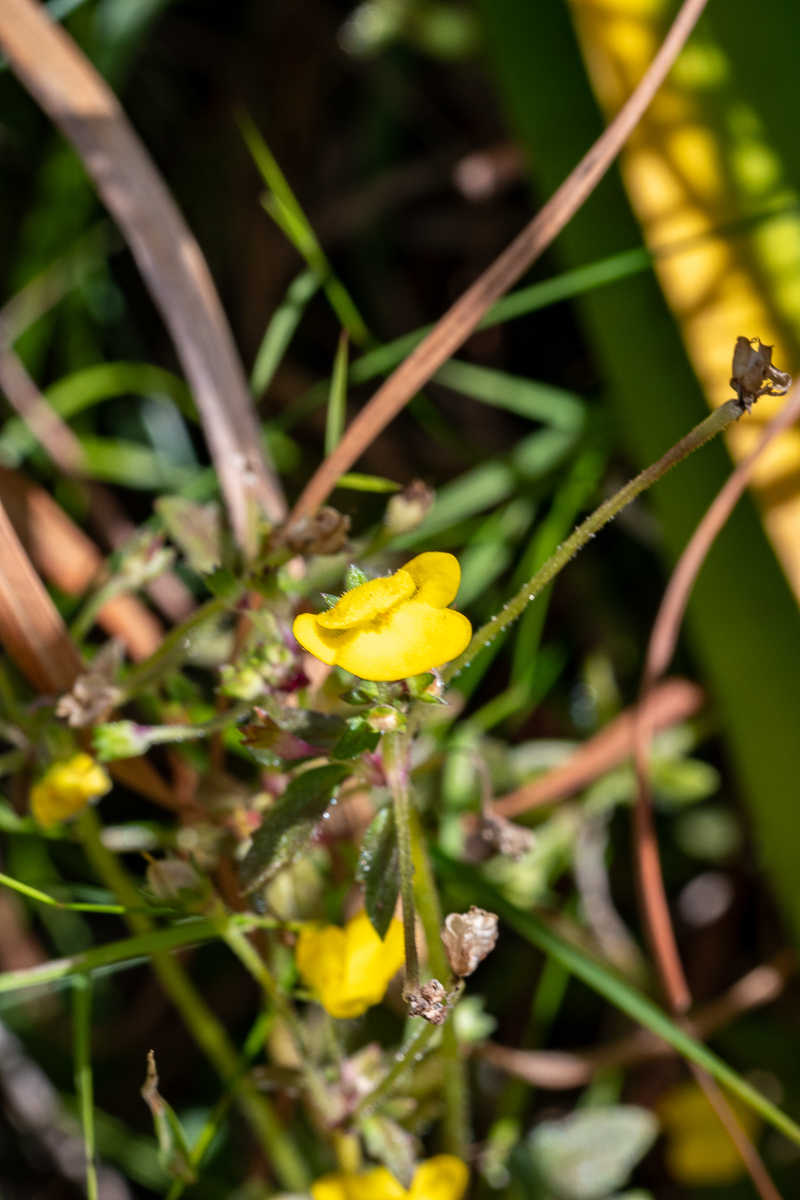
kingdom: Plantae
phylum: Tracheophyta
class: Magnoliopsida
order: Lamiales
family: Scrophulariaceae
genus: Hemimeris
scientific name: Hemimeris racemosa
